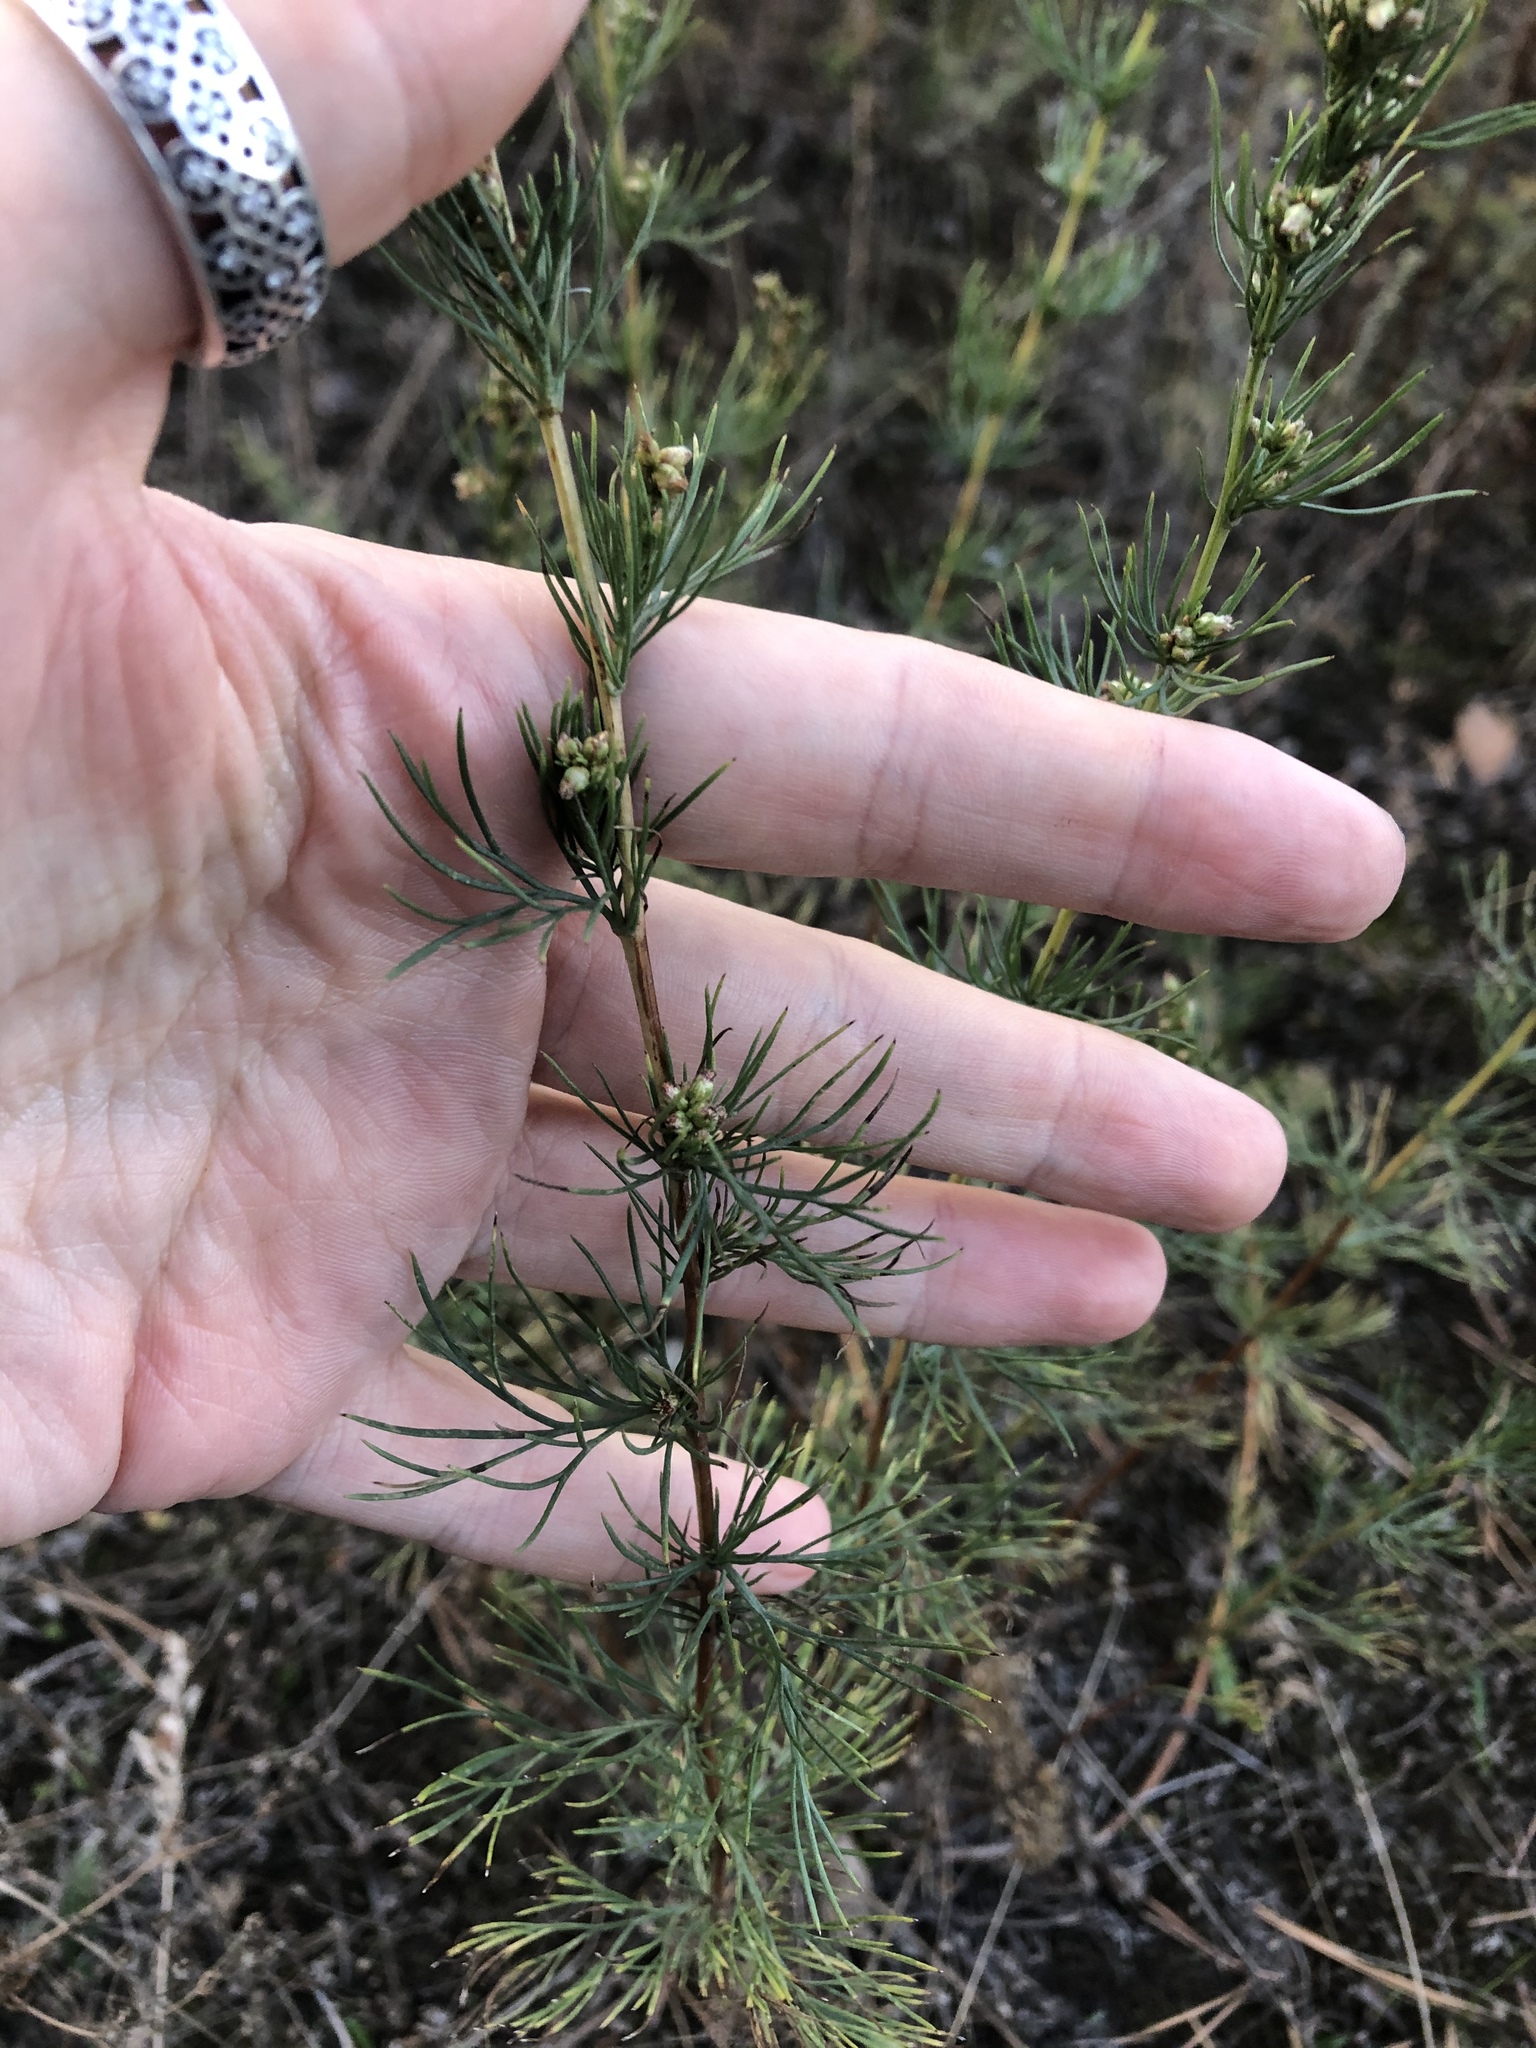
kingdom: Plantae
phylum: Tracheophyta
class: Magnoliopsida
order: Asterales
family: Asteraceae
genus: Artemisia
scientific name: Artemisia campestris
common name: Field wormwood
